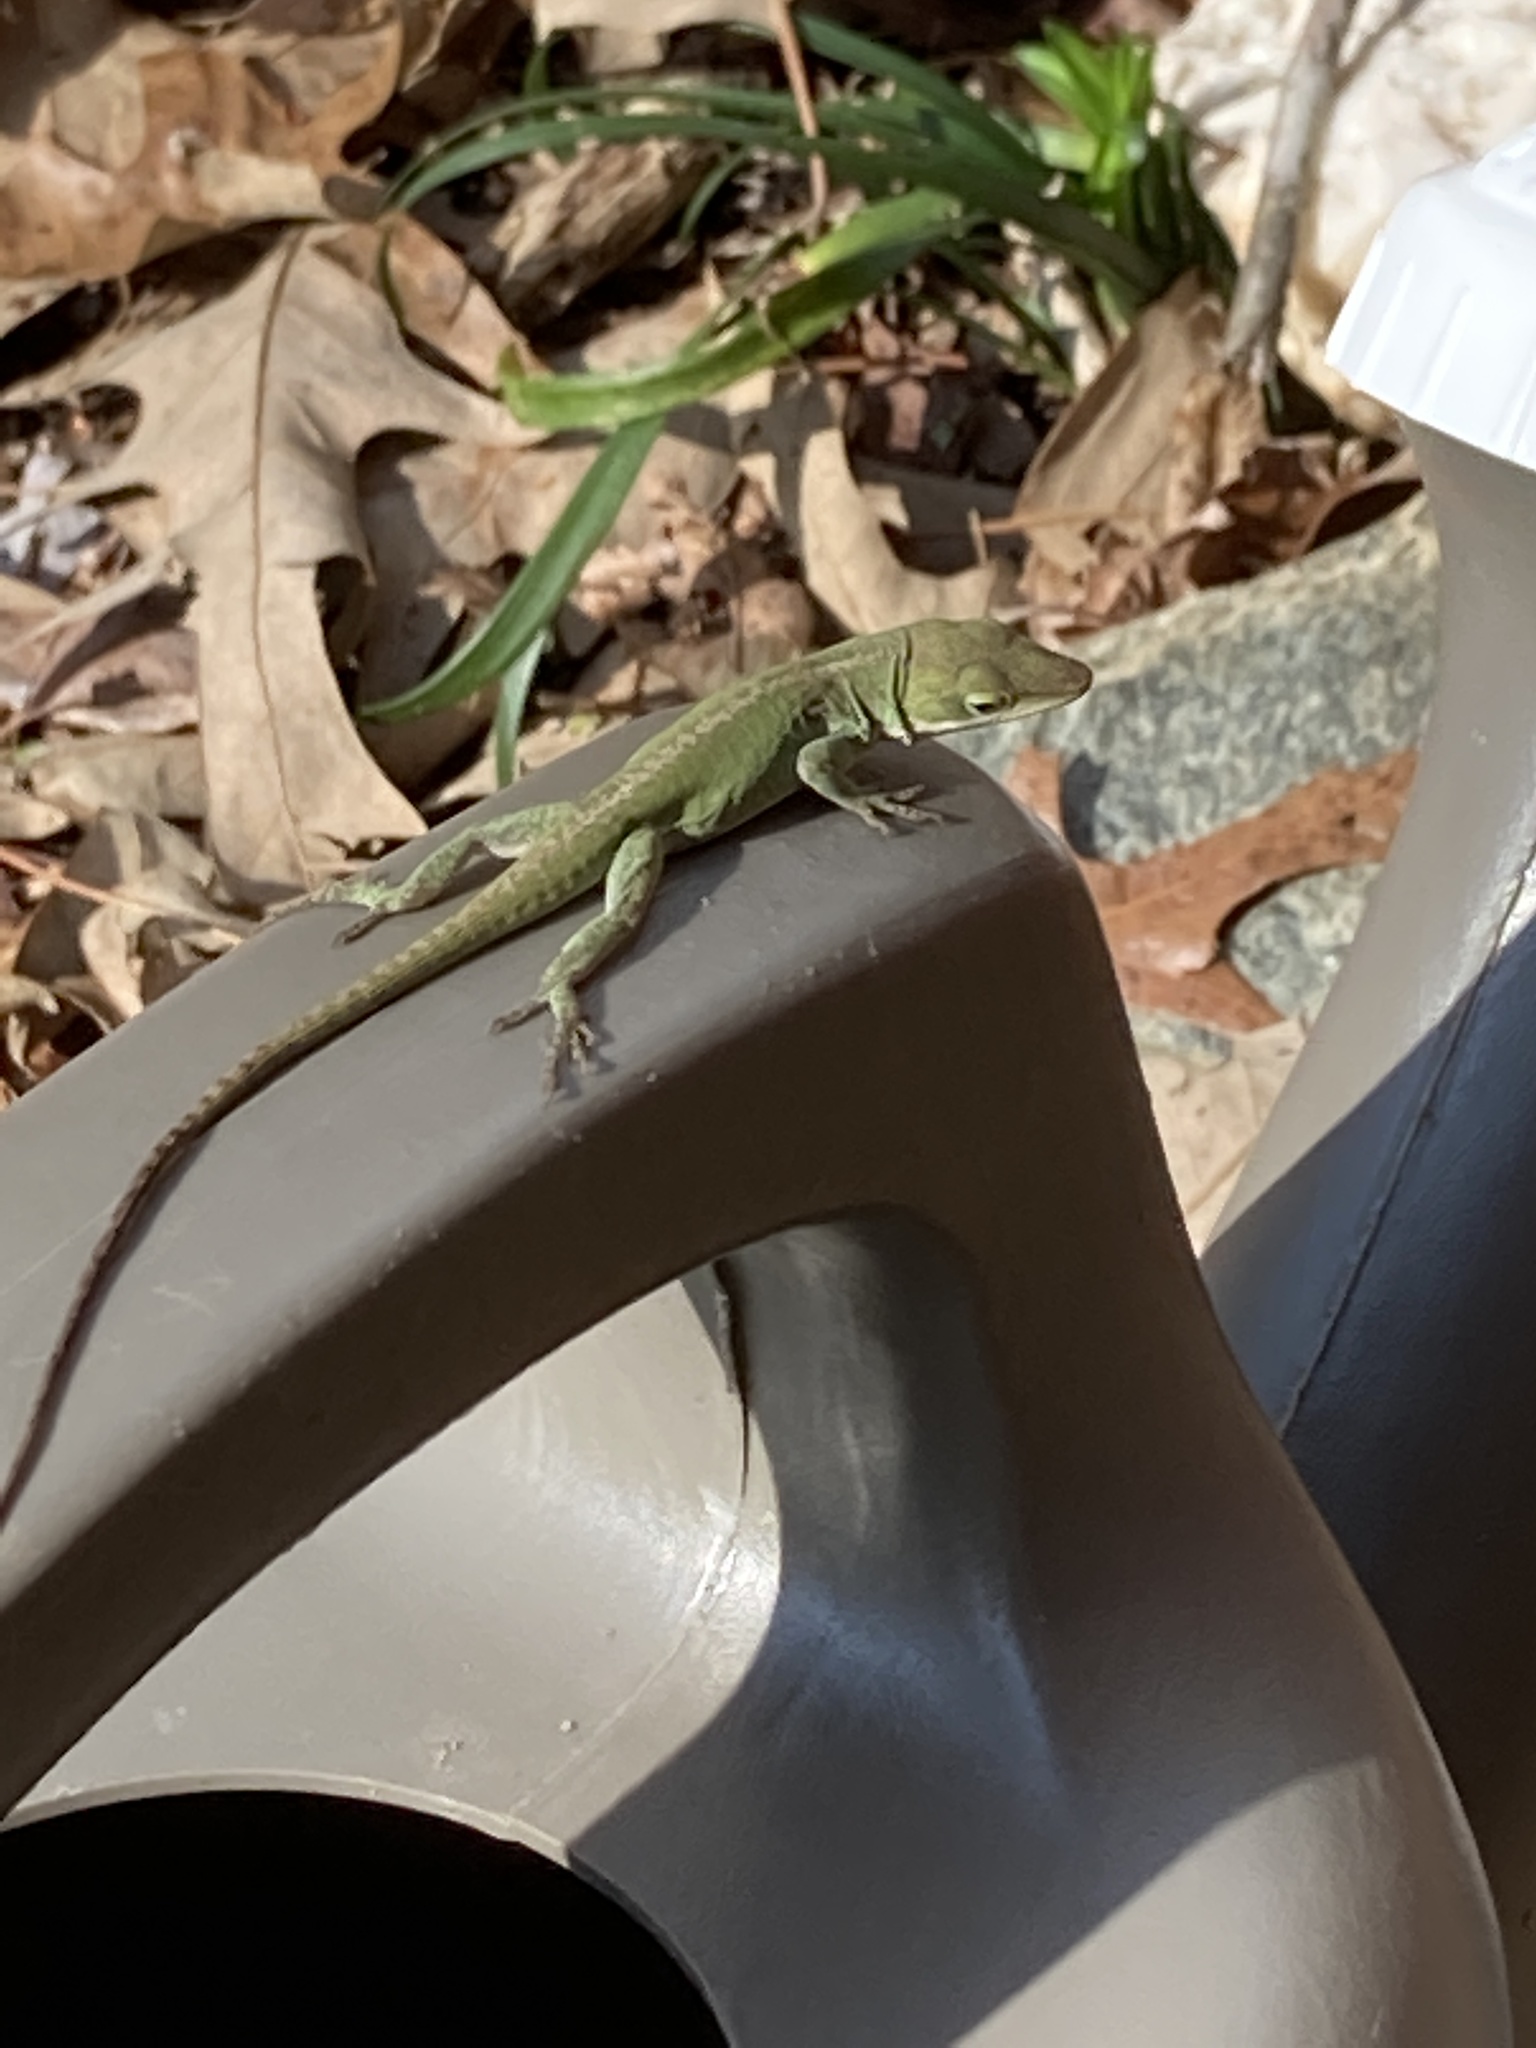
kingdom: Animalia
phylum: Chordata
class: Squamata
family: Dactyloidae
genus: Anolis
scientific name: Anolis carolinensis
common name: Green anole
